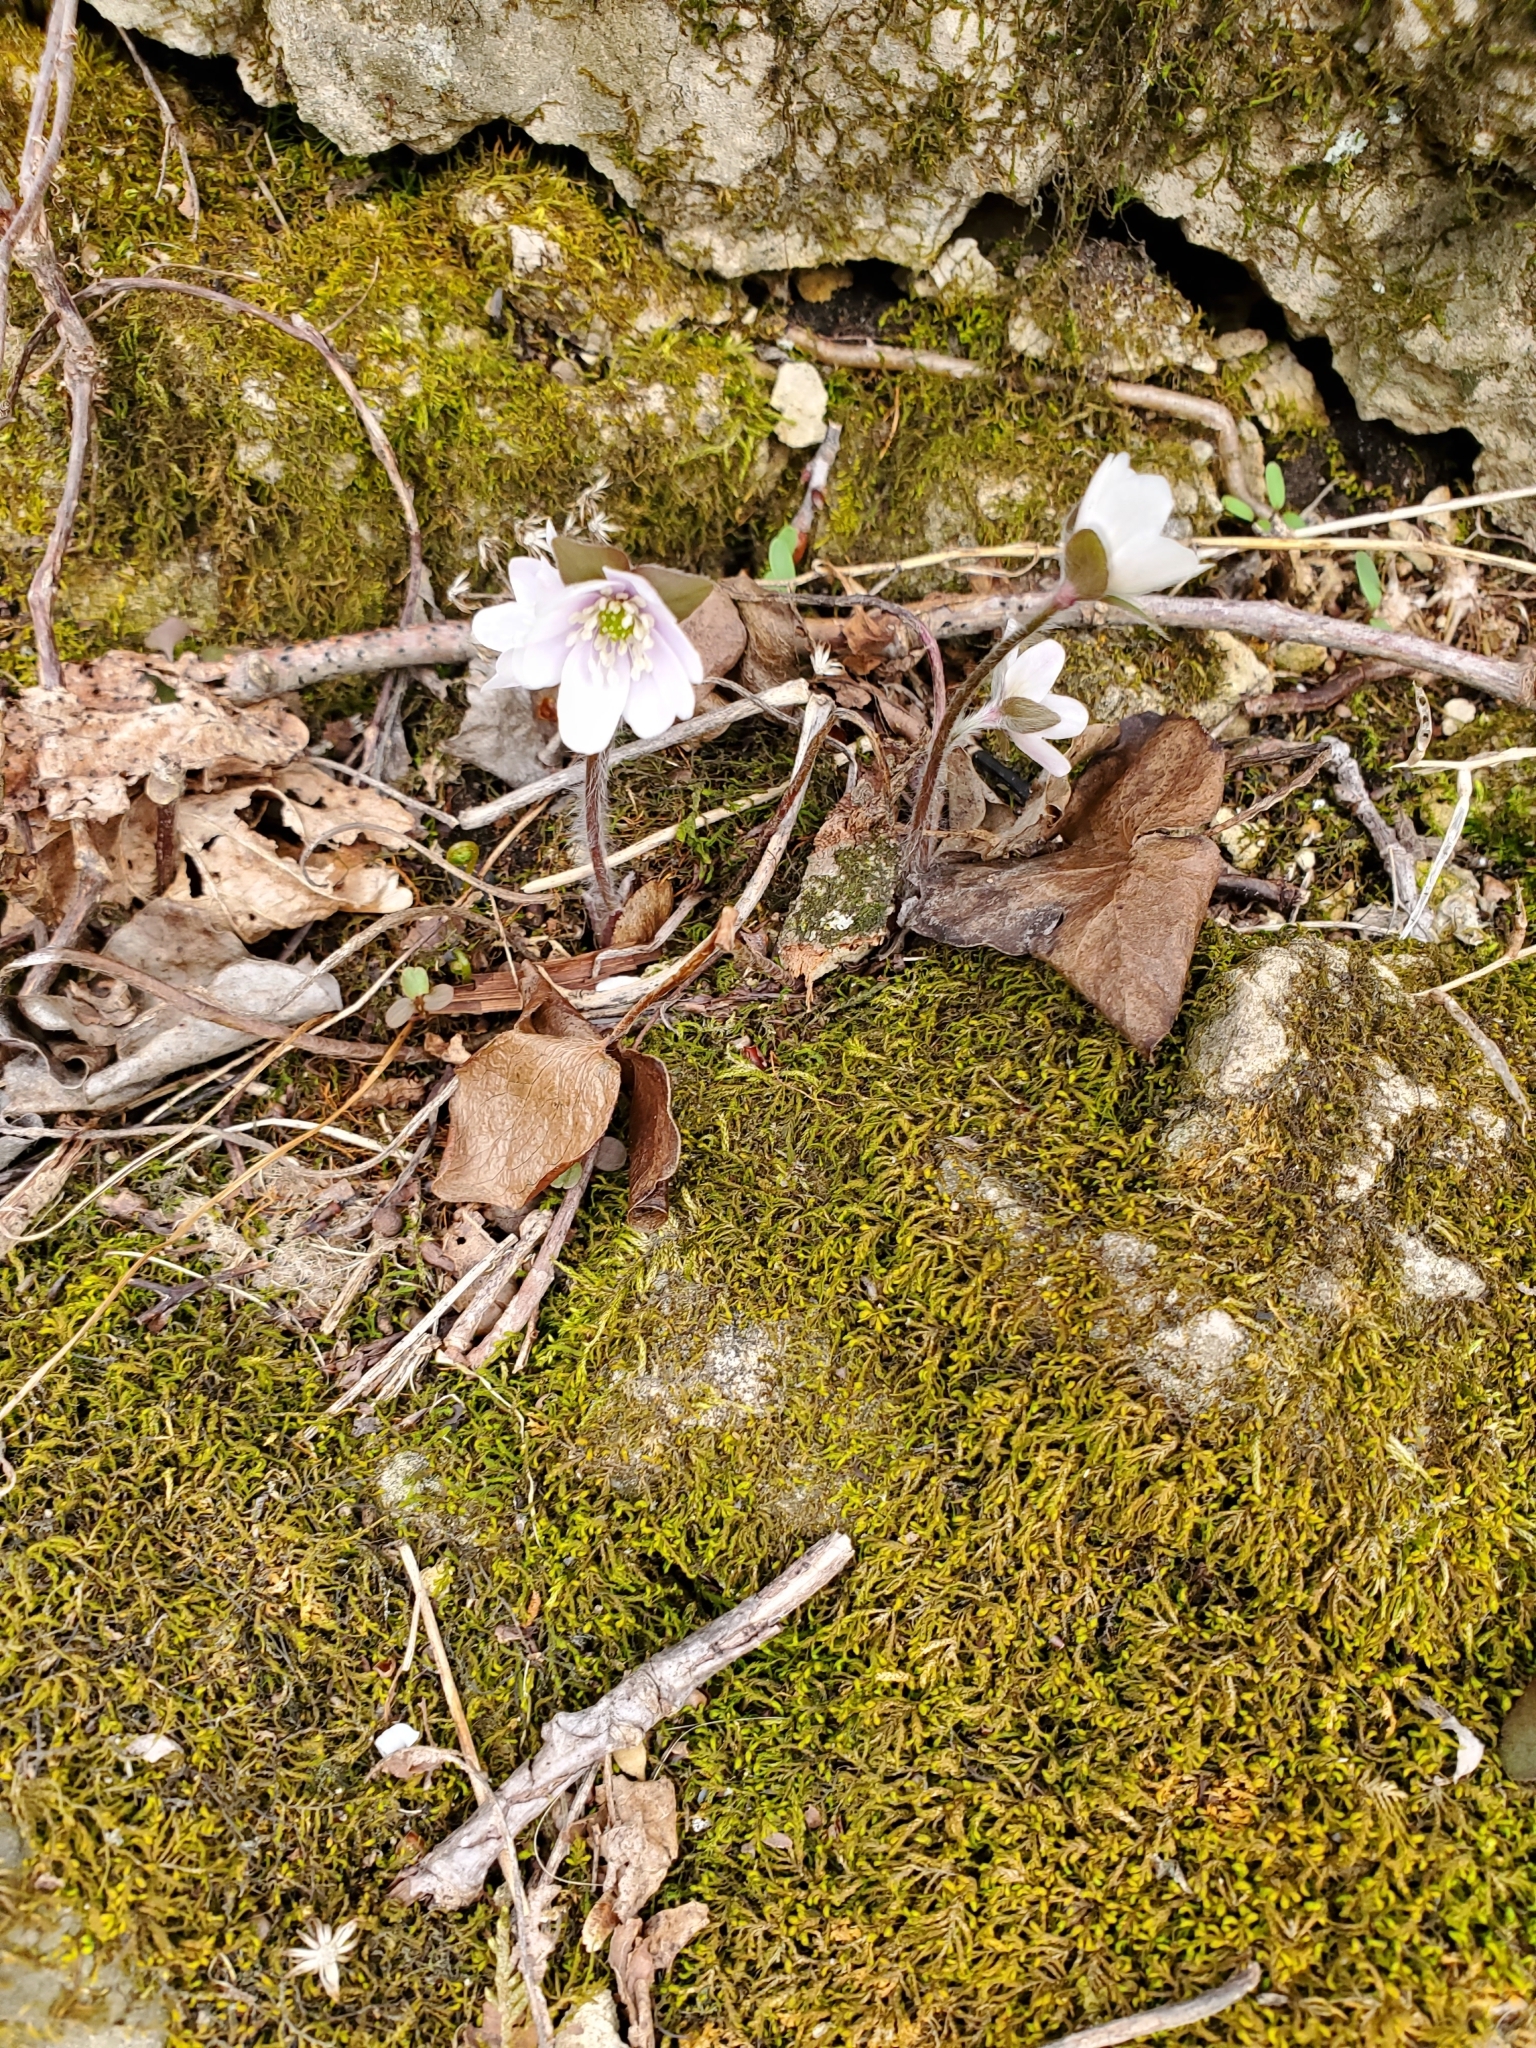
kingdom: Plantae
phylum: Tracheophyta
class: Magnoliopsida
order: Ranunculales
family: Ranunculaceae
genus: Hepatica
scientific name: Hepatica acutiloba
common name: Sharp-lobed hepatica
